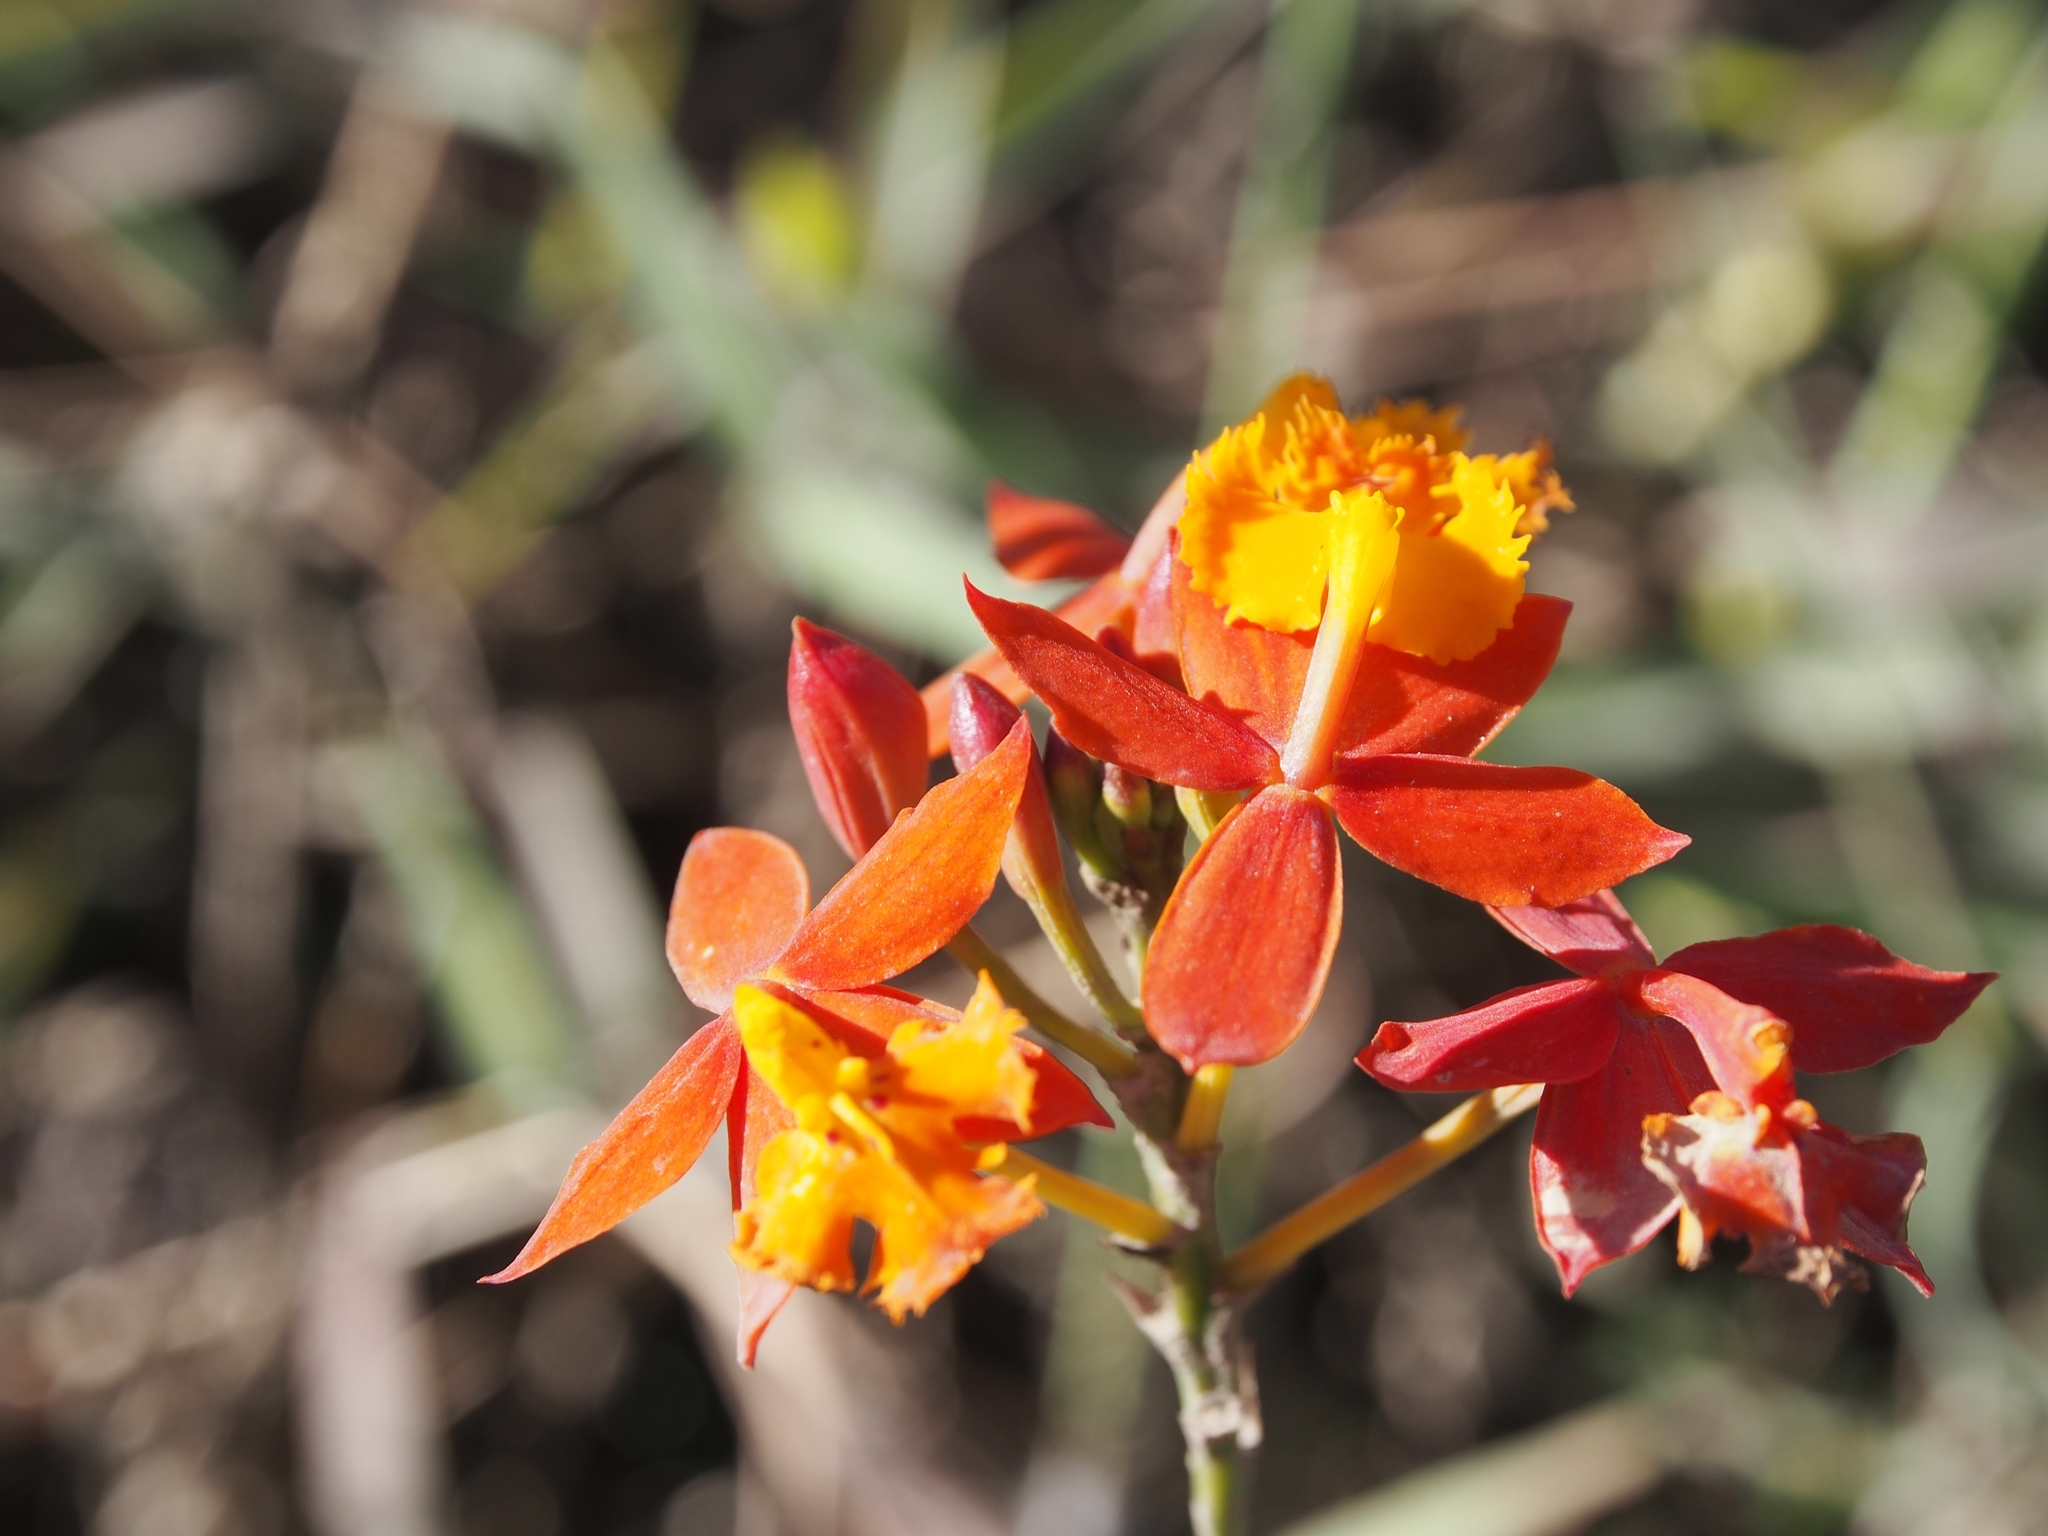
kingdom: Plantae
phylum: Tracheophyta
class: Liliopsida
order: Asparagales
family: Orchidaceae
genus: Epidendrum
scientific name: Epidendrum radicans
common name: Fire star orchid
